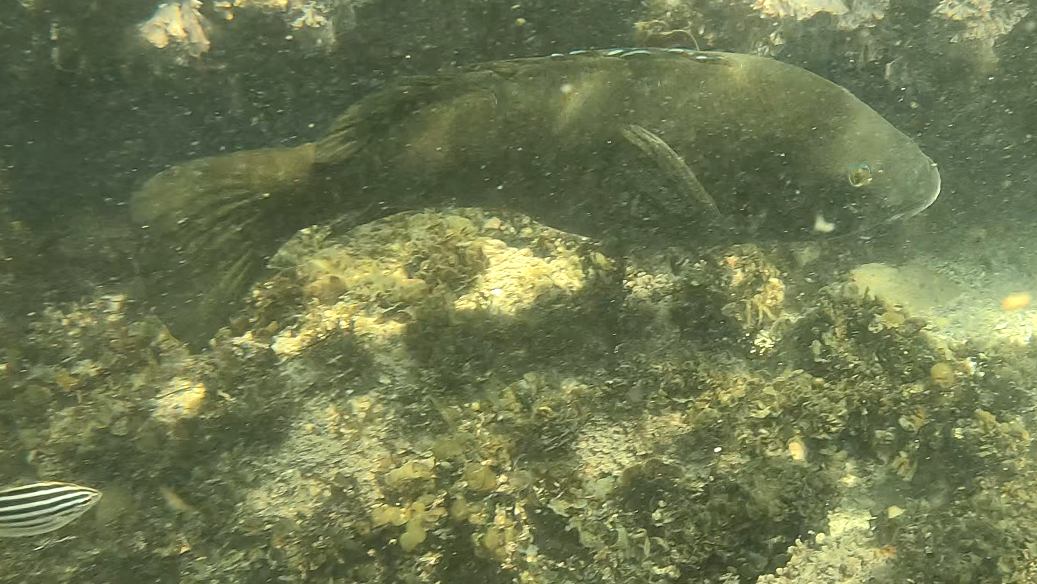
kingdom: Animalia
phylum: Chordata
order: Perciformes
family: Labridae
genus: Achoerodus
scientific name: Achoerodus viridis
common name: Brown groper
